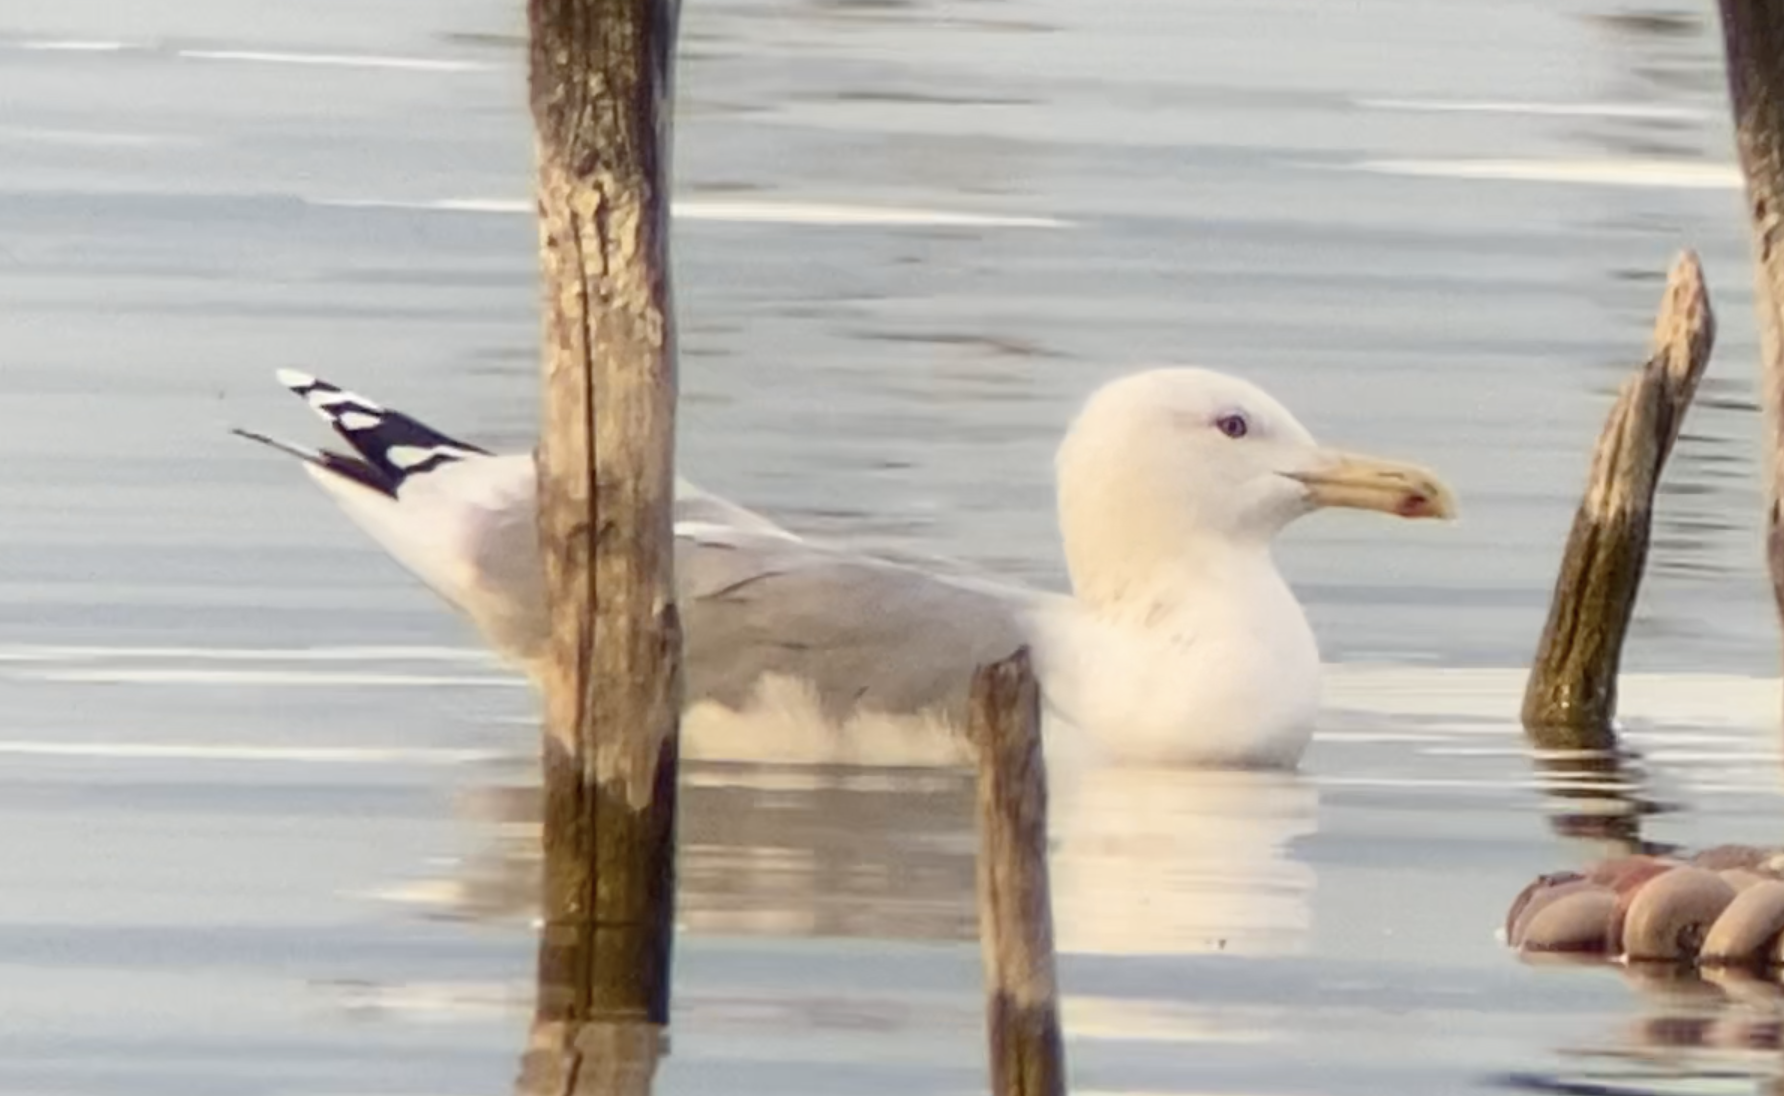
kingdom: Animalia
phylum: Chordata
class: Aves
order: Charadriiformes
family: Laridae
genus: Larus
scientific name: Larus cachinnans
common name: Caspian gull
